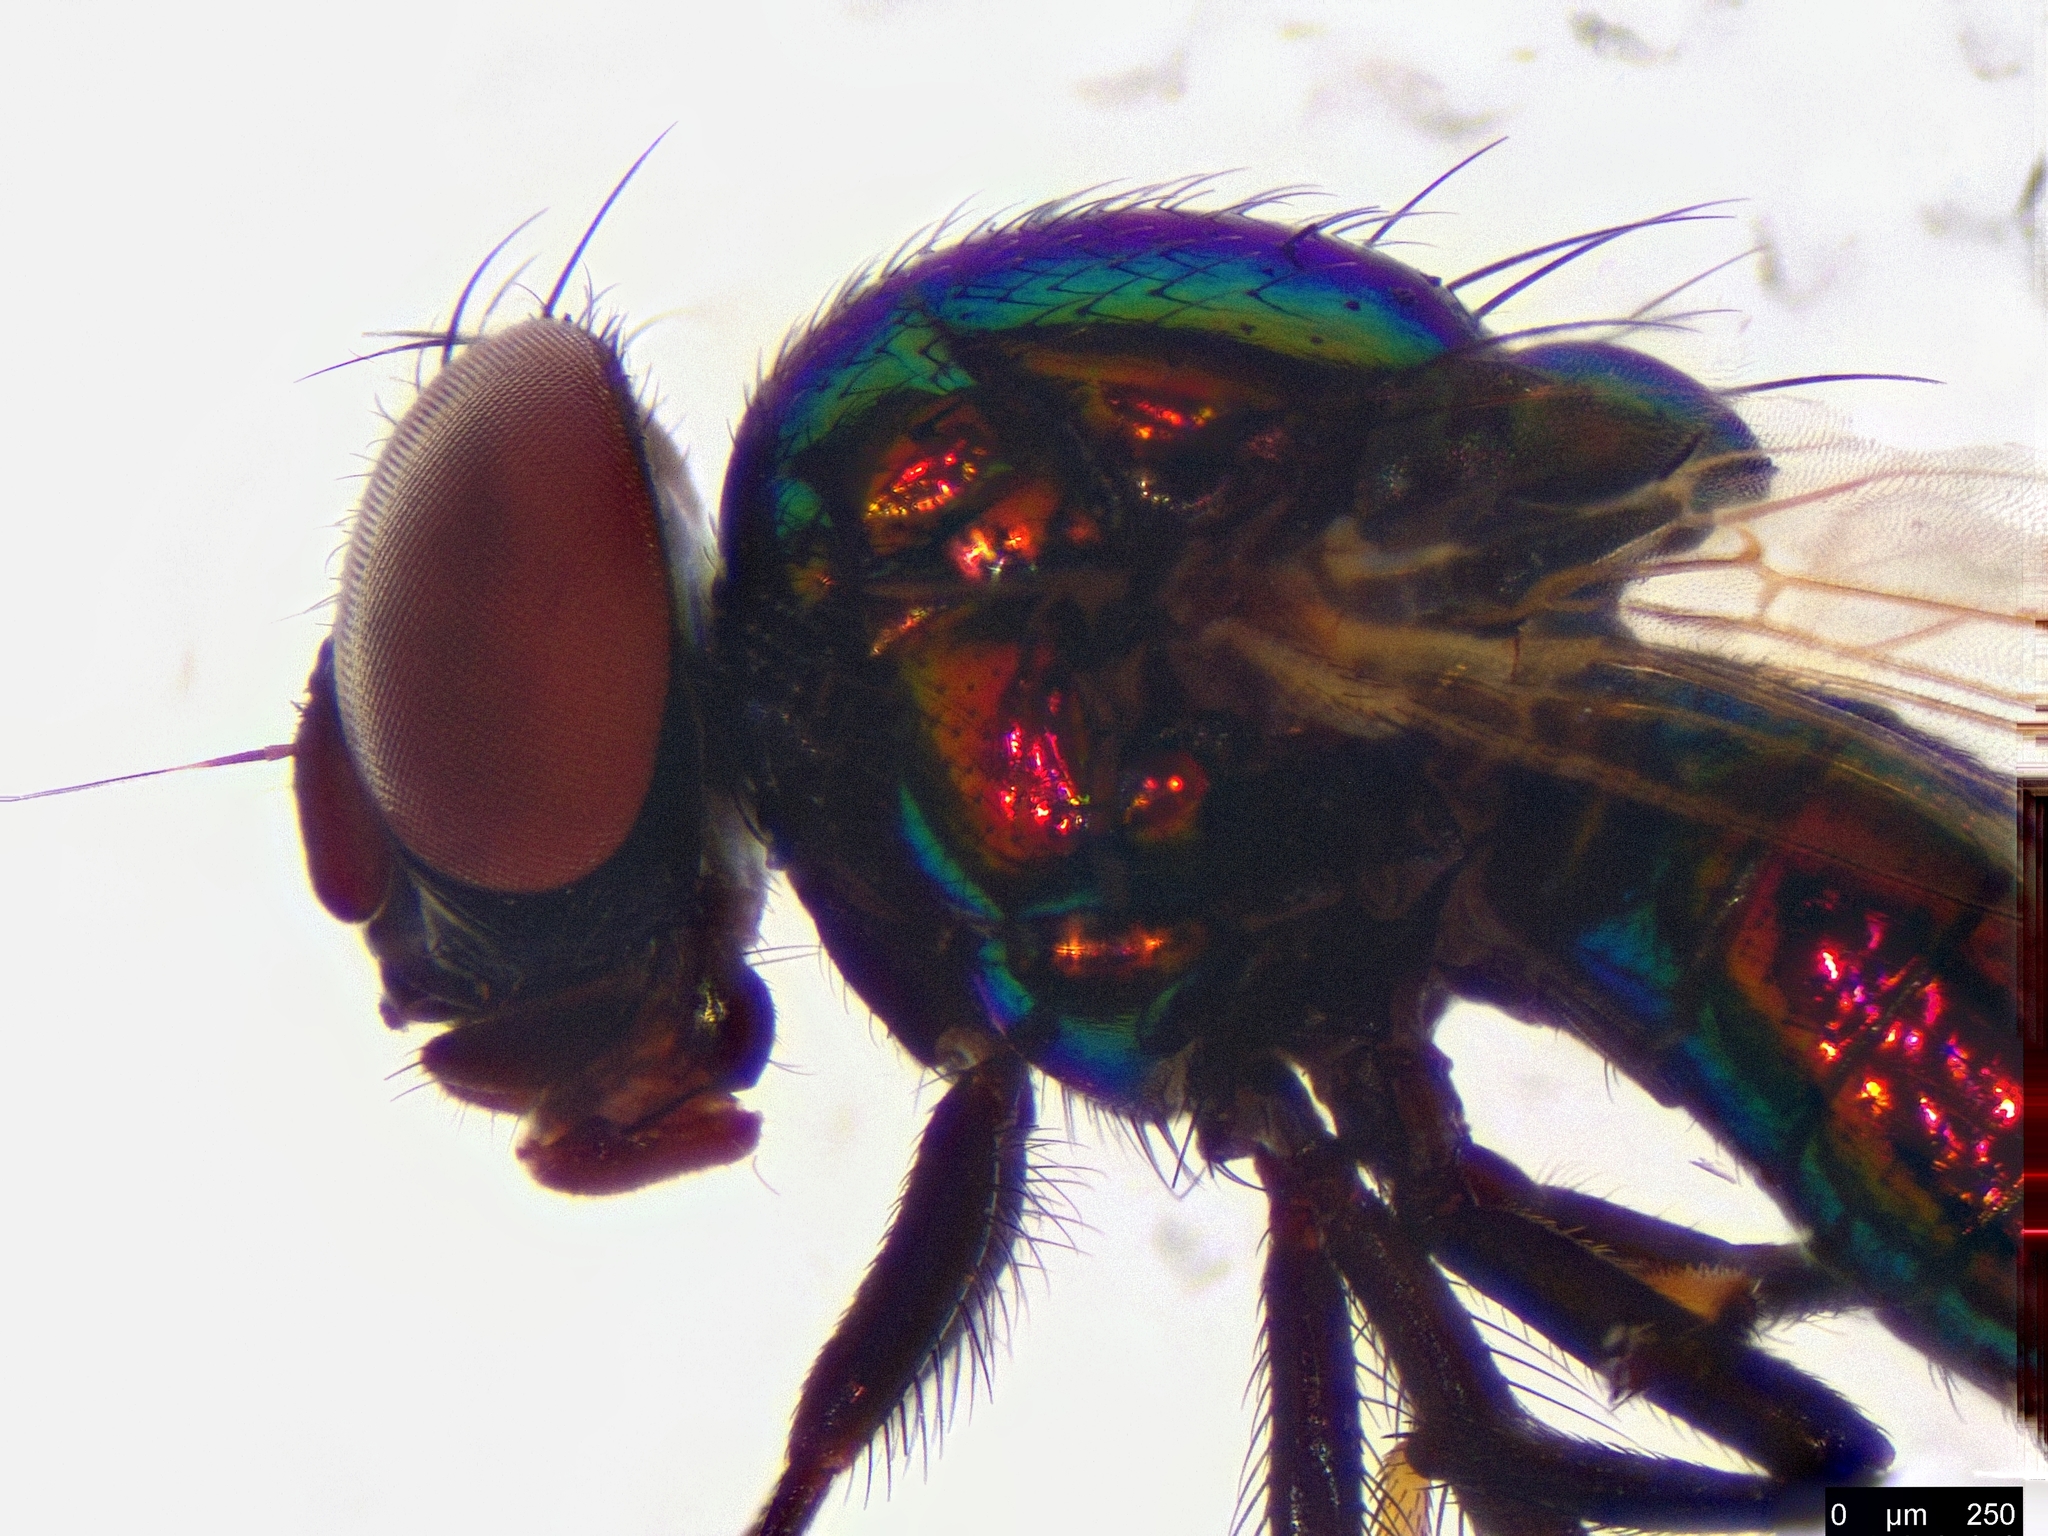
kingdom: Animalia
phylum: Arthropoda
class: Insecta
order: Diptera
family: Lonchaeidae
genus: Lamprolonchaea
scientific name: Lamprolonchaea brouniana
